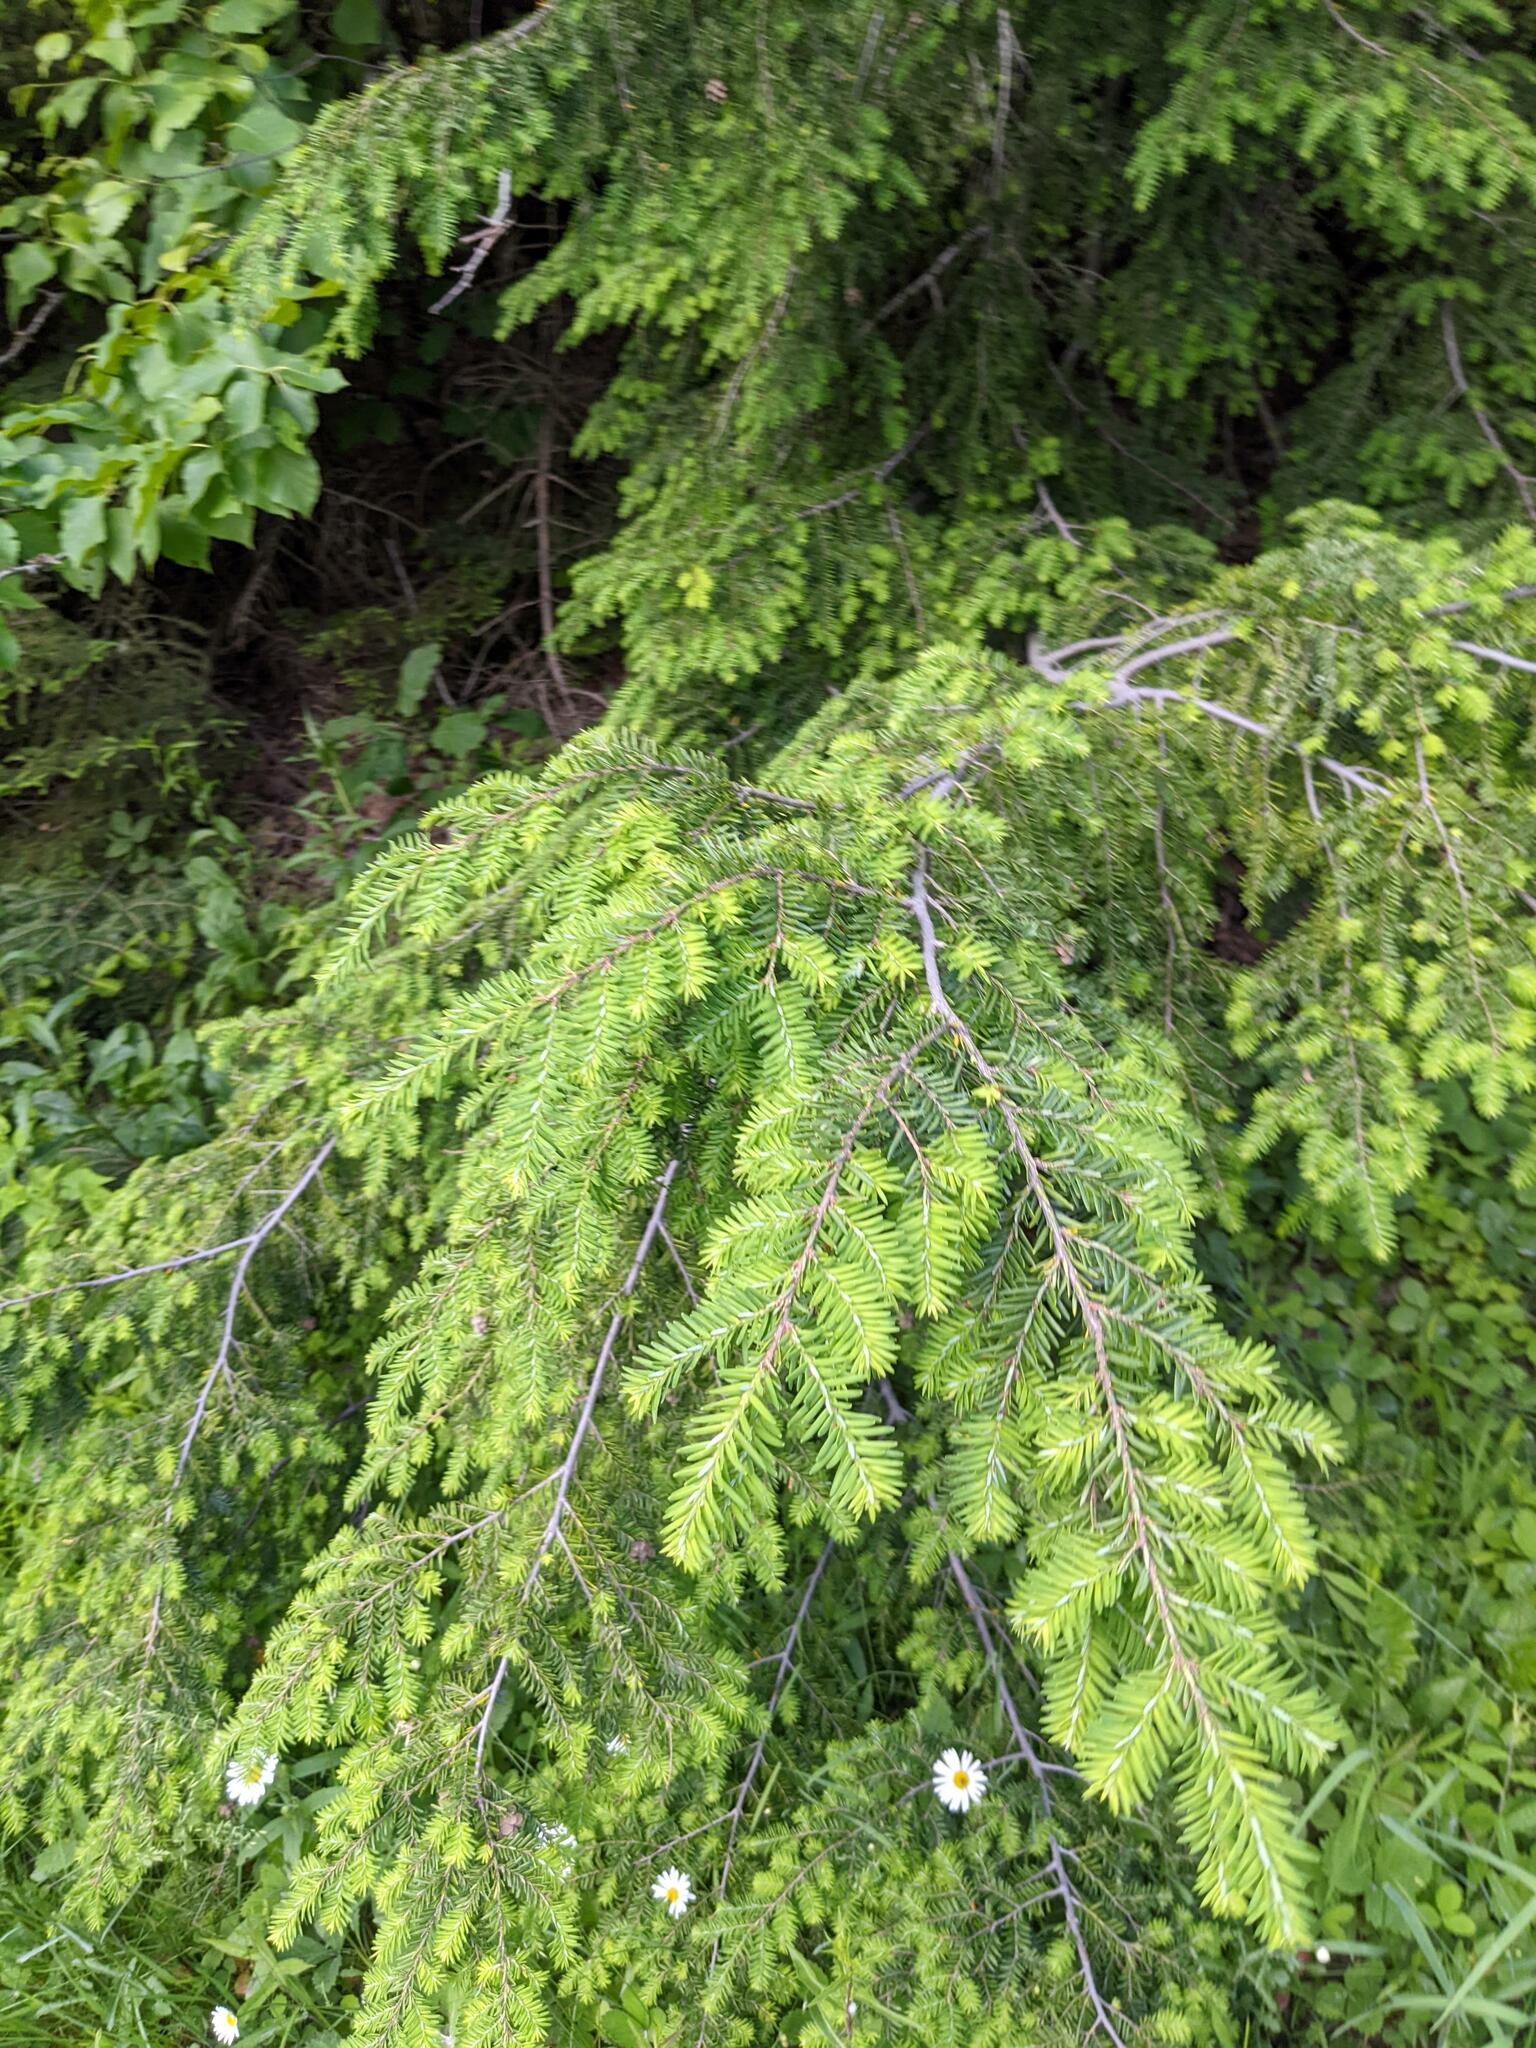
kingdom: Plantae
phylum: Tracheophyta
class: Pinopsida
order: Pinales
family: Pinaceae
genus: Tsuga
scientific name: Tsuga canadensis
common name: Eastern hemlock
